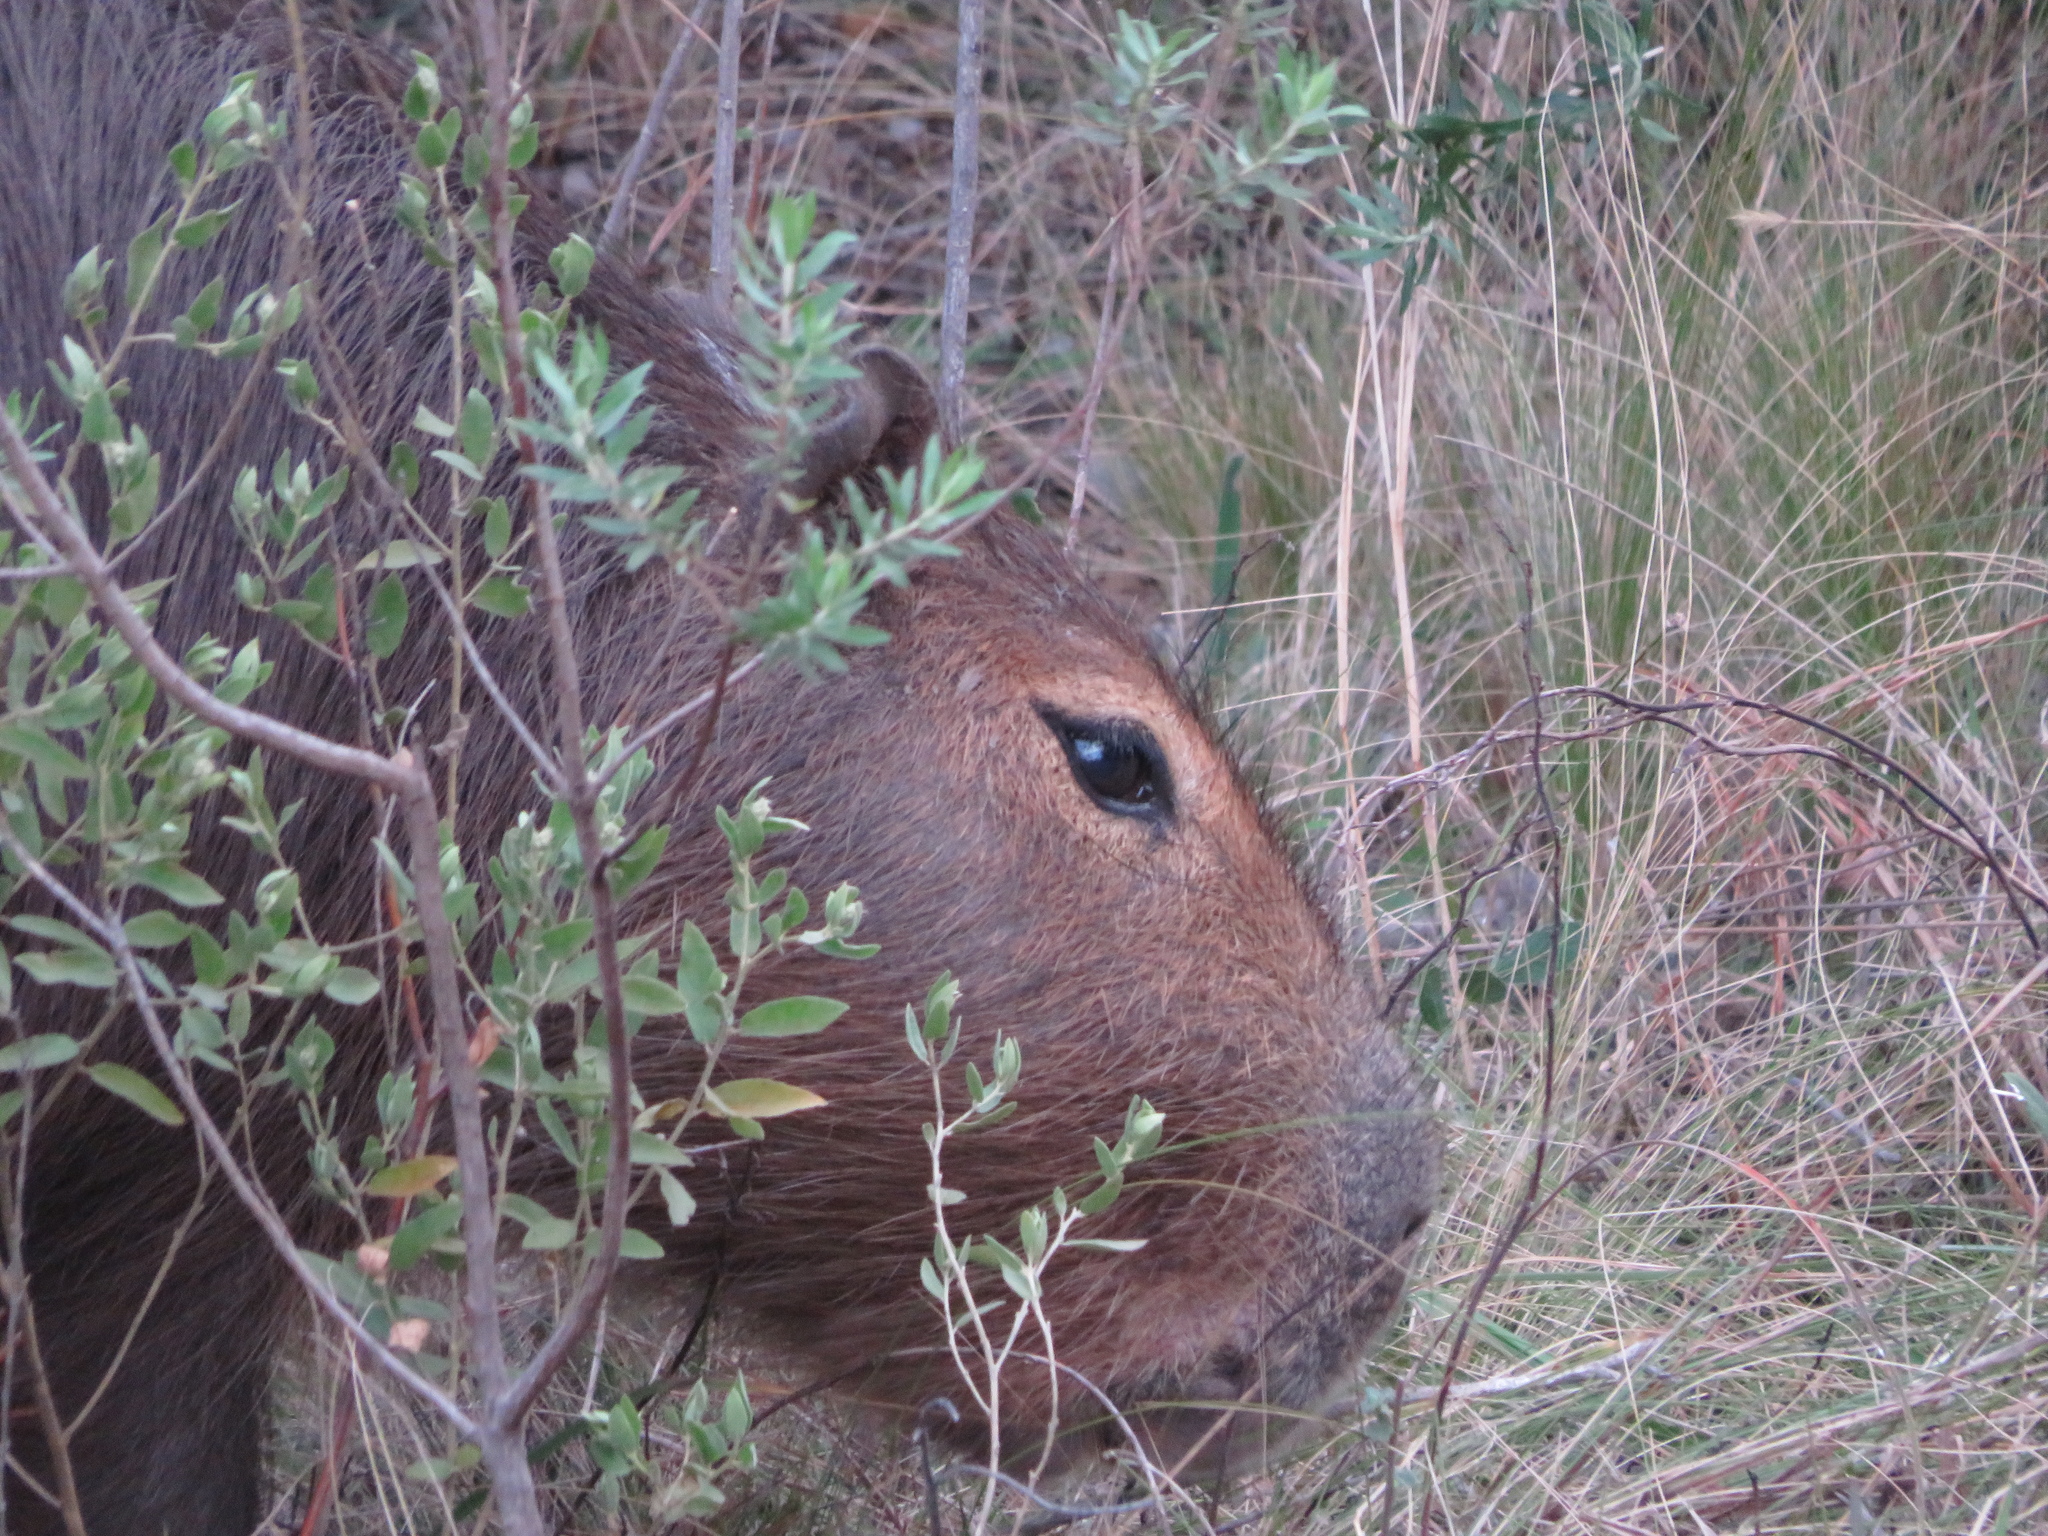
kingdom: Animalia
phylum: Chordata
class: Mammalia
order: Rodentia
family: Caviidae
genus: Hydrochoerus
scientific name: Hydrochoerus hydrochaeris
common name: Capybara
